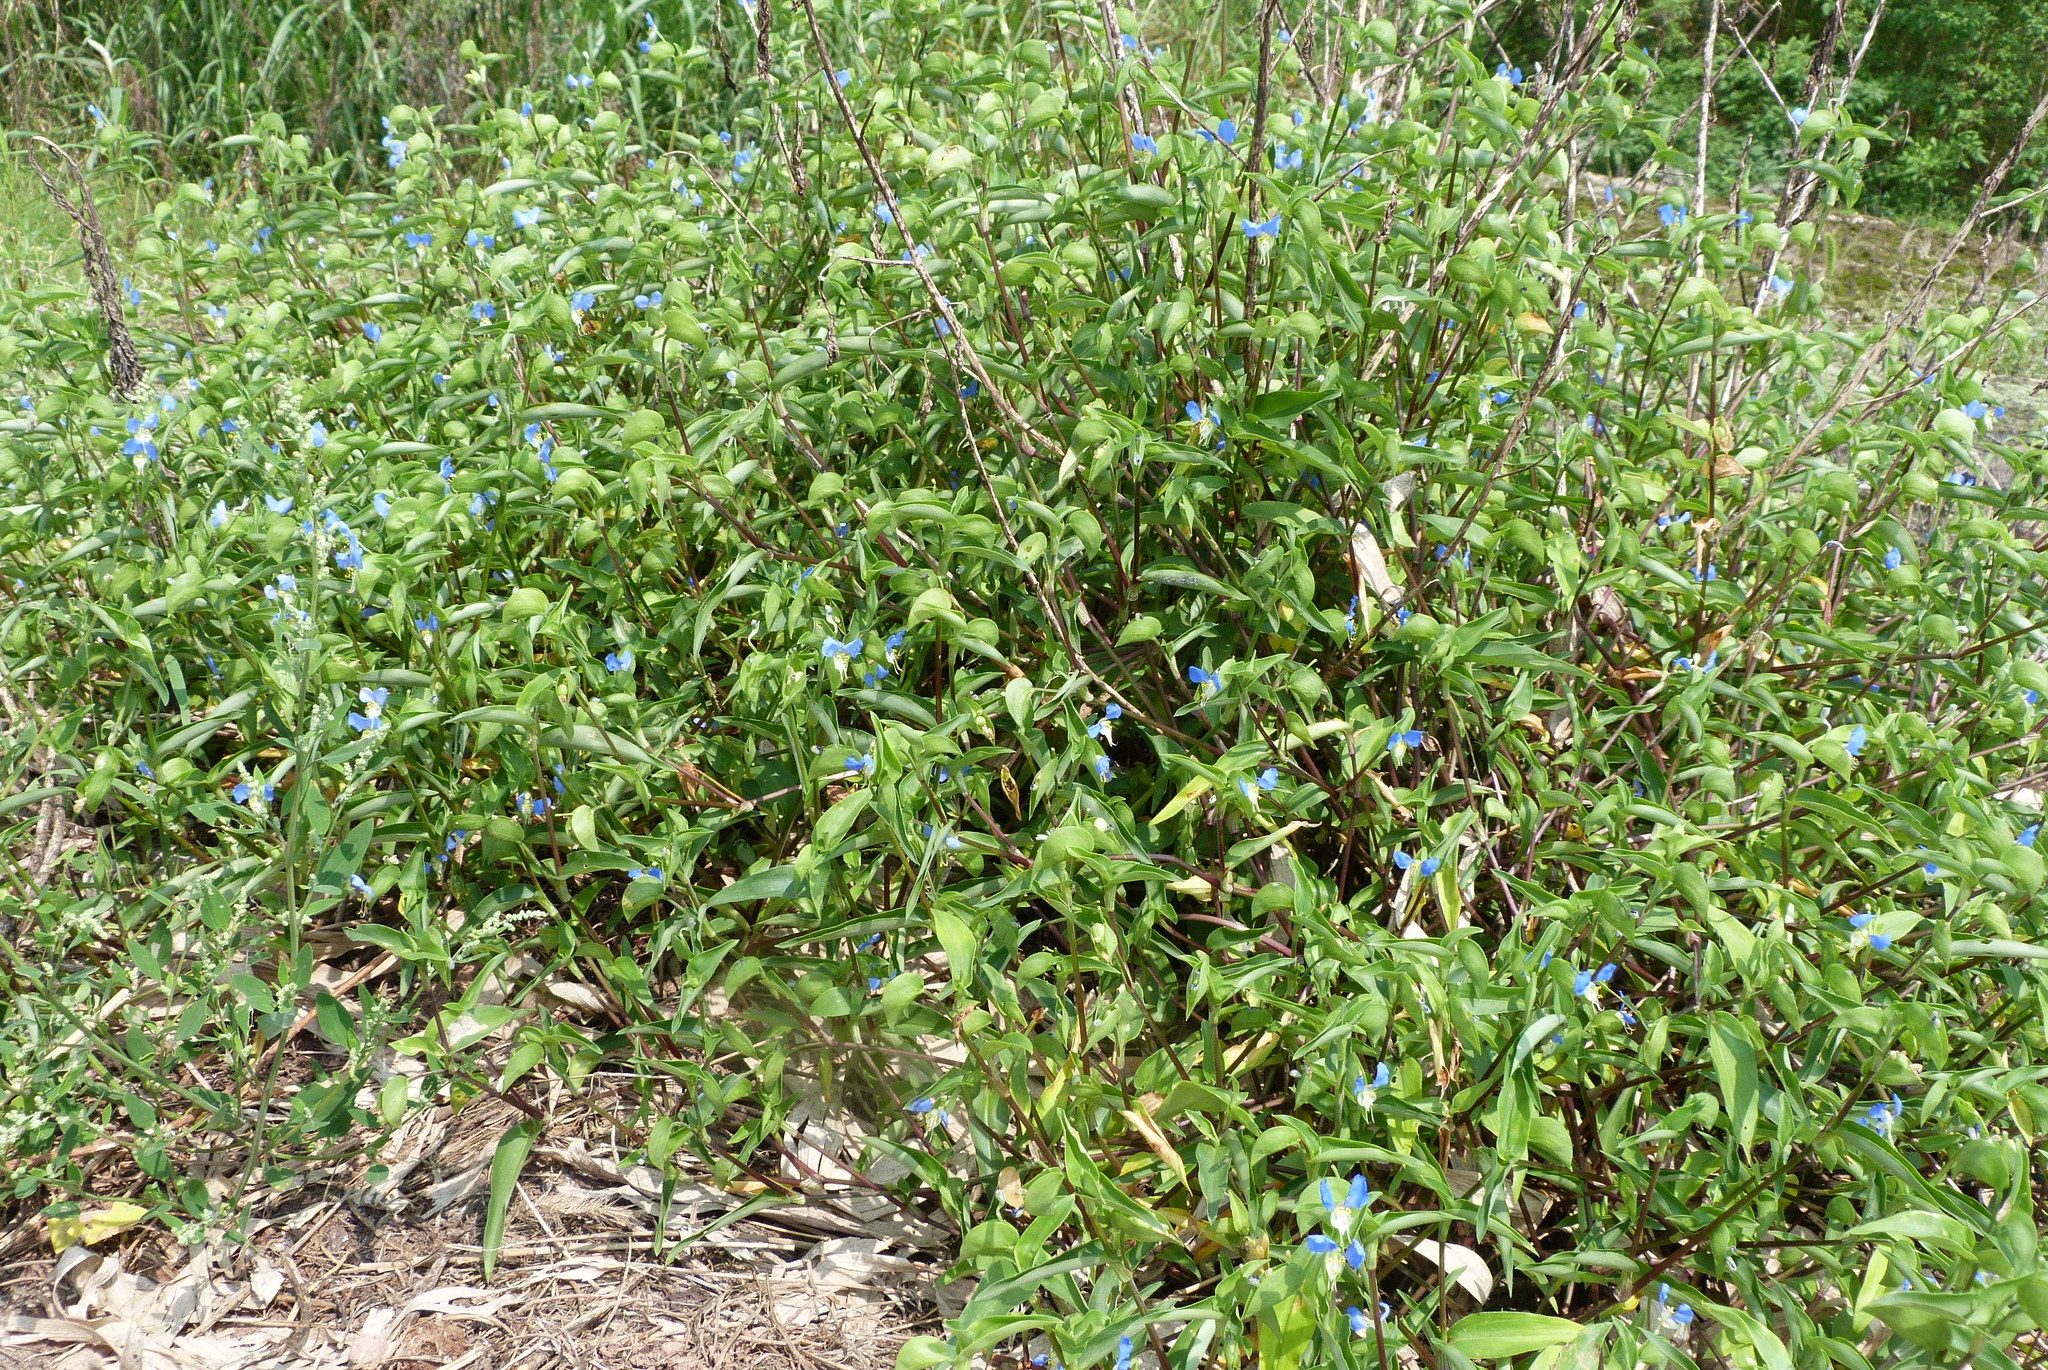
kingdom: Plantae
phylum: Tracheophyta
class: Liliopsida
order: Commelinales
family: Commelinaceae
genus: Commelina
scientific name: Commelina communis
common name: Asiatic dayflower
